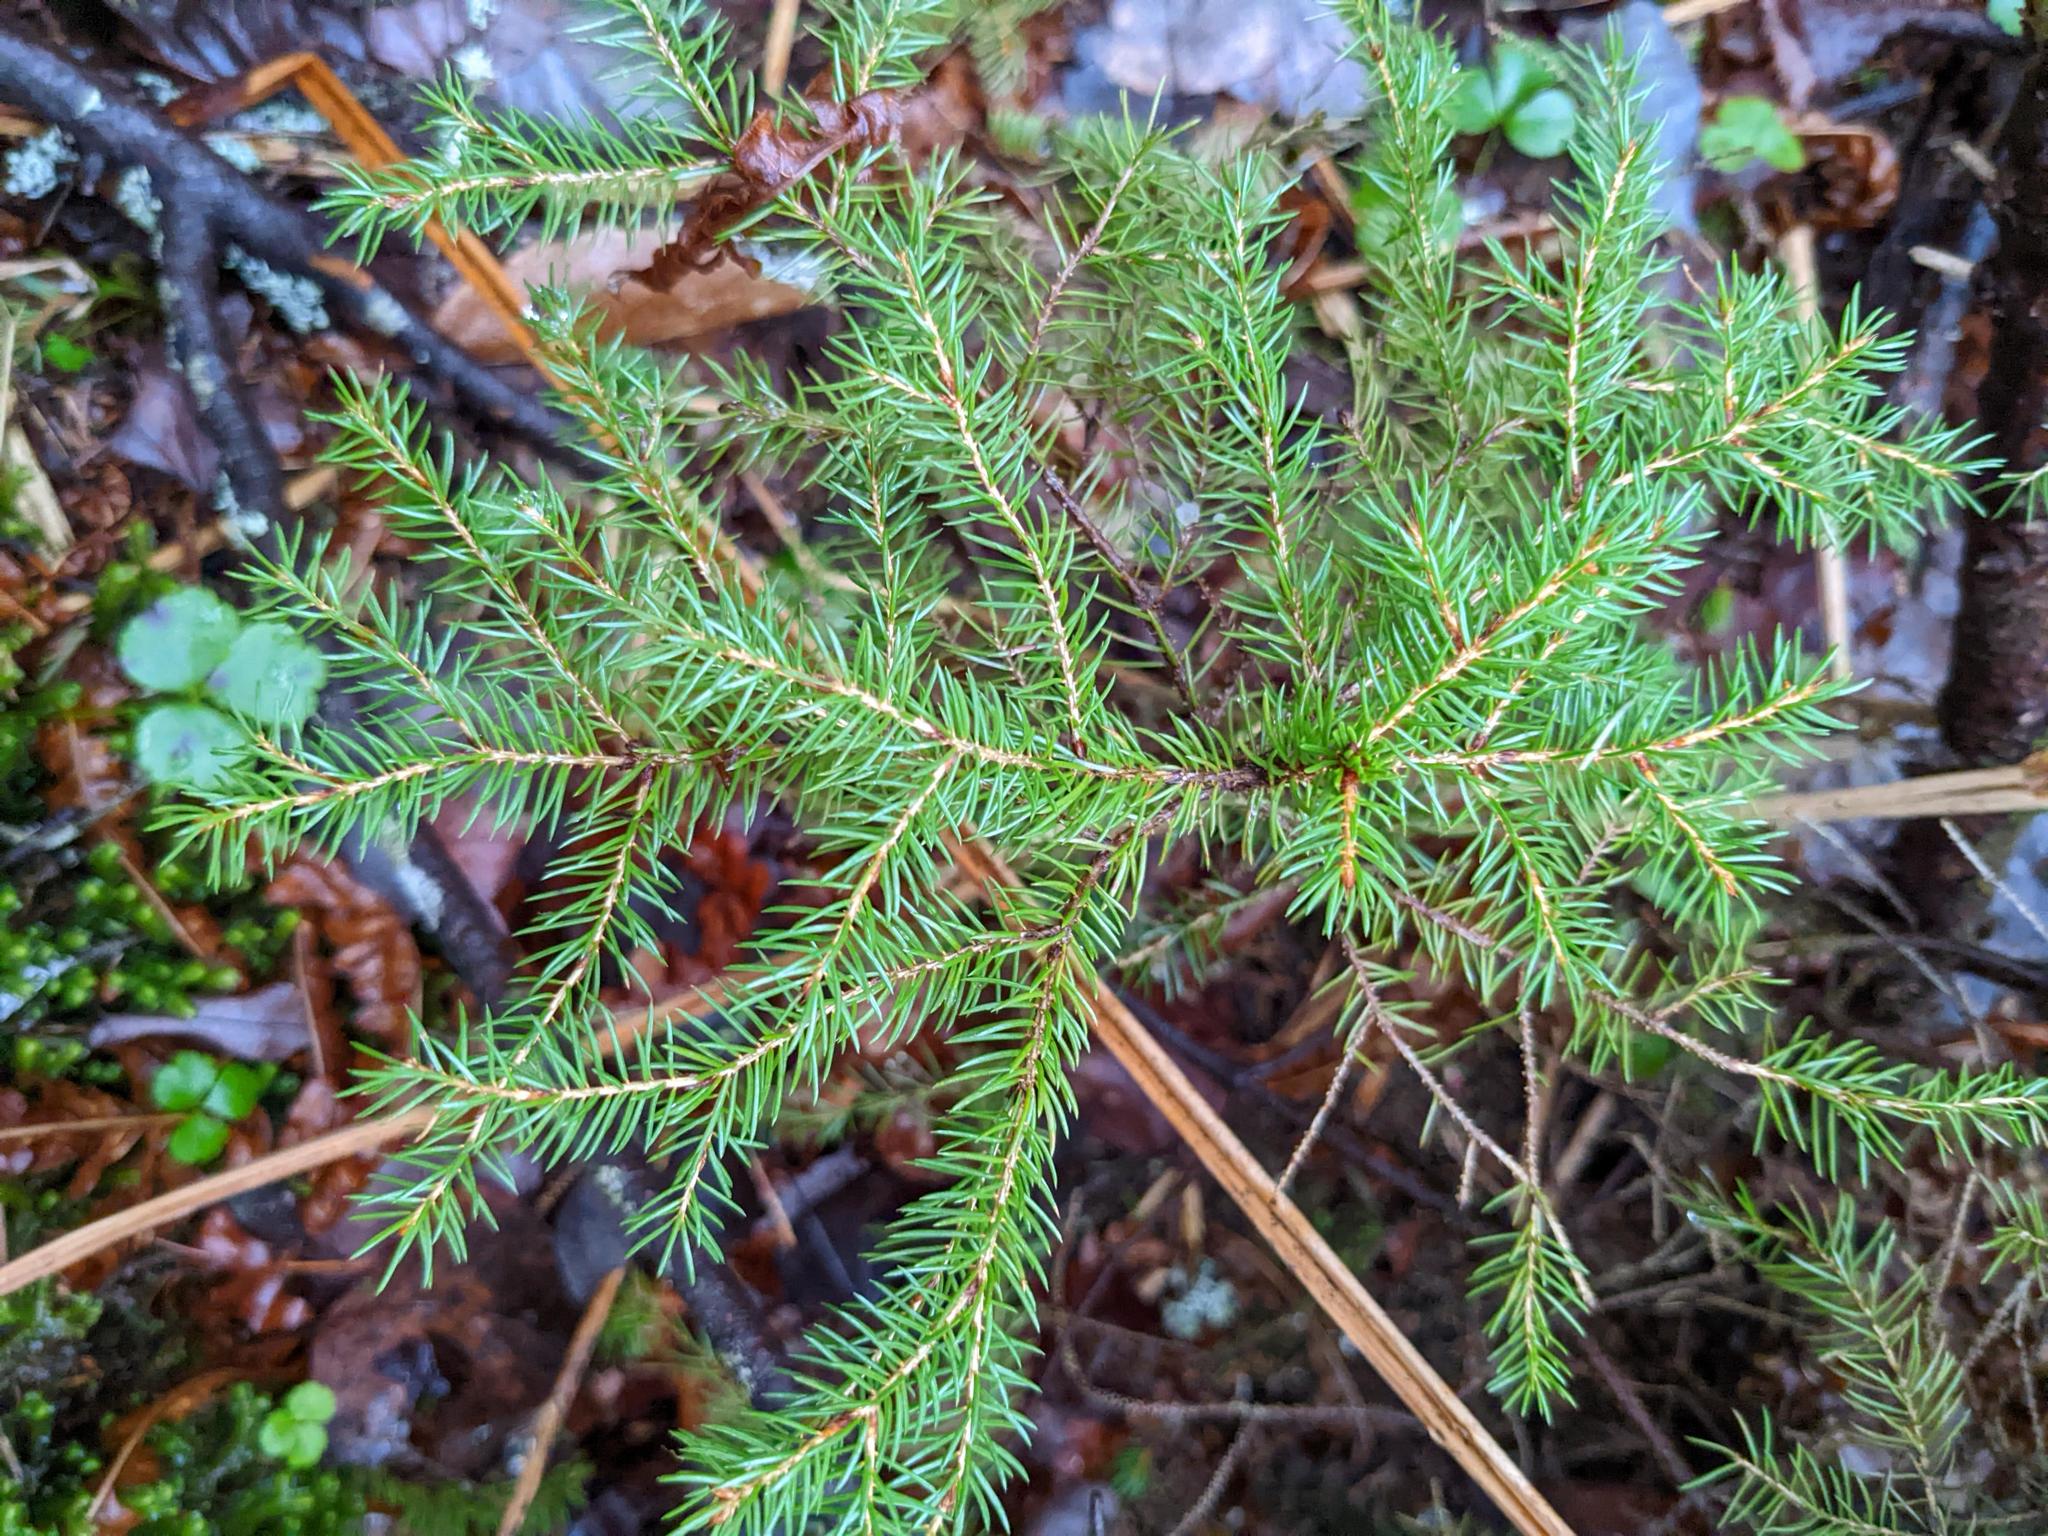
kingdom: Plantae
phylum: Tracheophyta
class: Pinopsida
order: Pinales
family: Pinaceae
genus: Picea
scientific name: Picea rubens
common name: Red spruce
